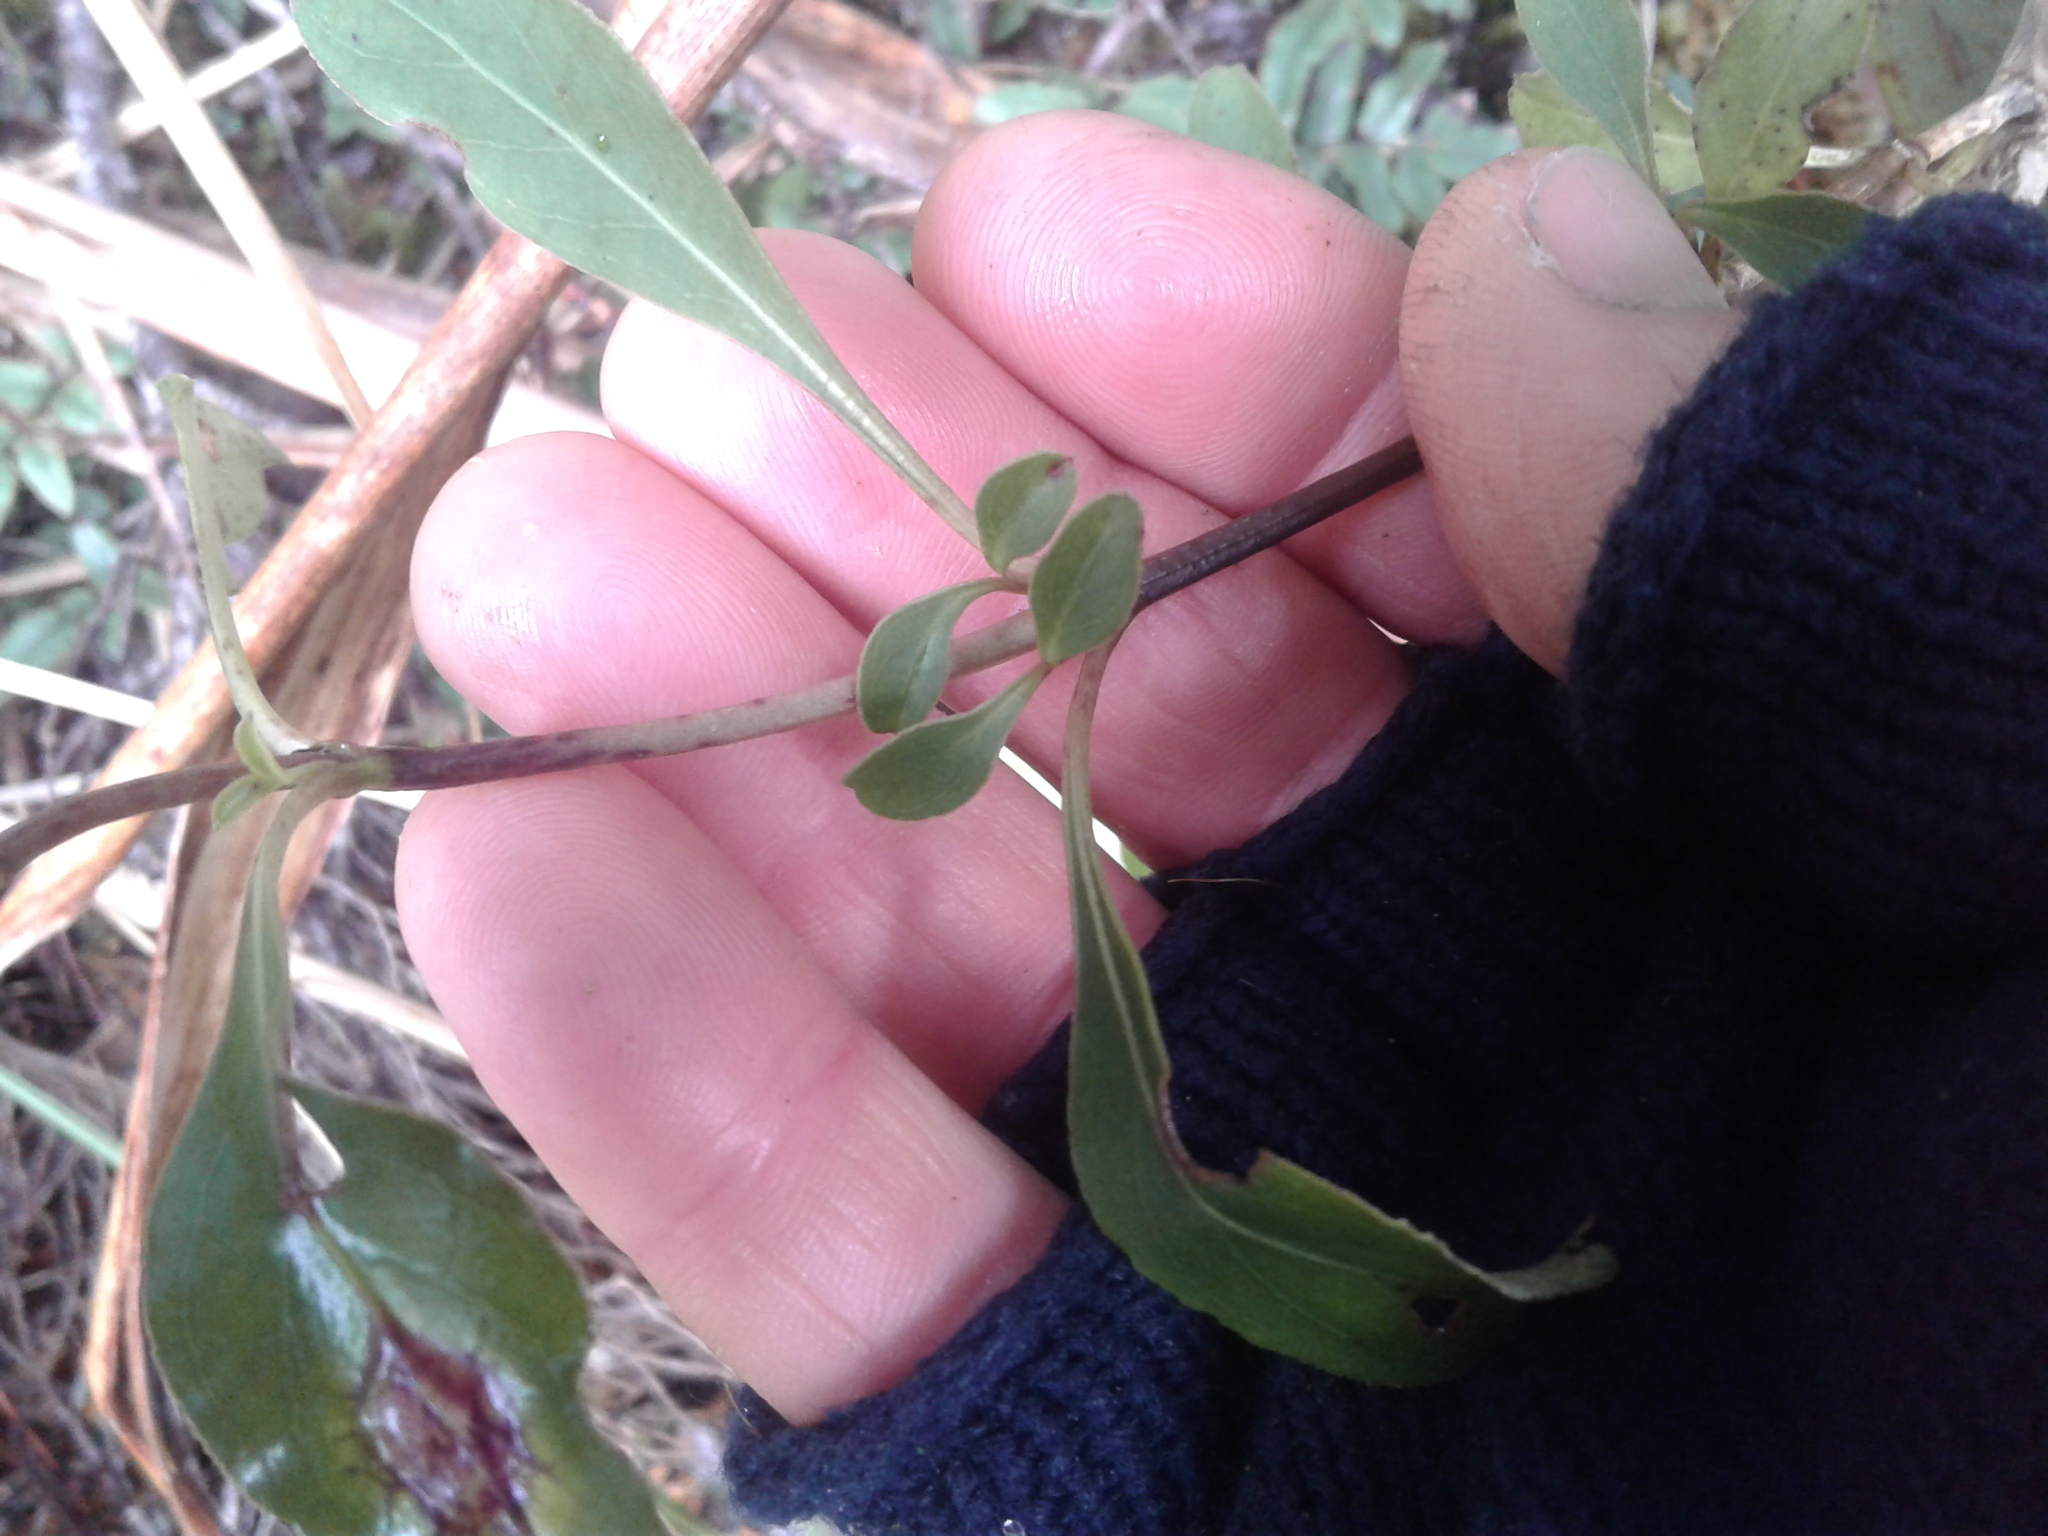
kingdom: Plantae
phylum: Tracheophyta
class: Magnoliopsida
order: Gentianales
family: Rubiaceae
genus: Coprosma
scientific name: Coprosma foetidissima
